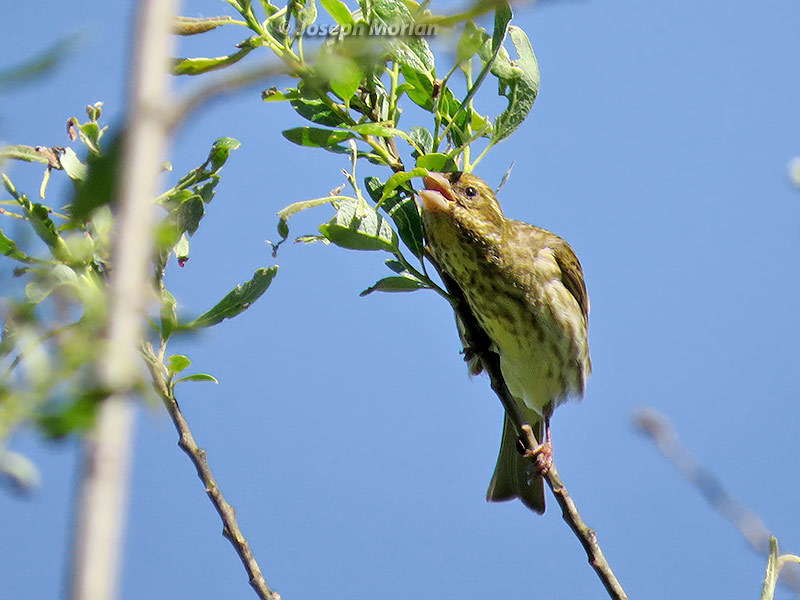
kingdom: Animalia
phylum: Chordata
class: Aves
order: Passeriformes
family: Fringillidae
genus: Haemorhous
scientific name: Haemorhous purpureus
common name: Purple finch
